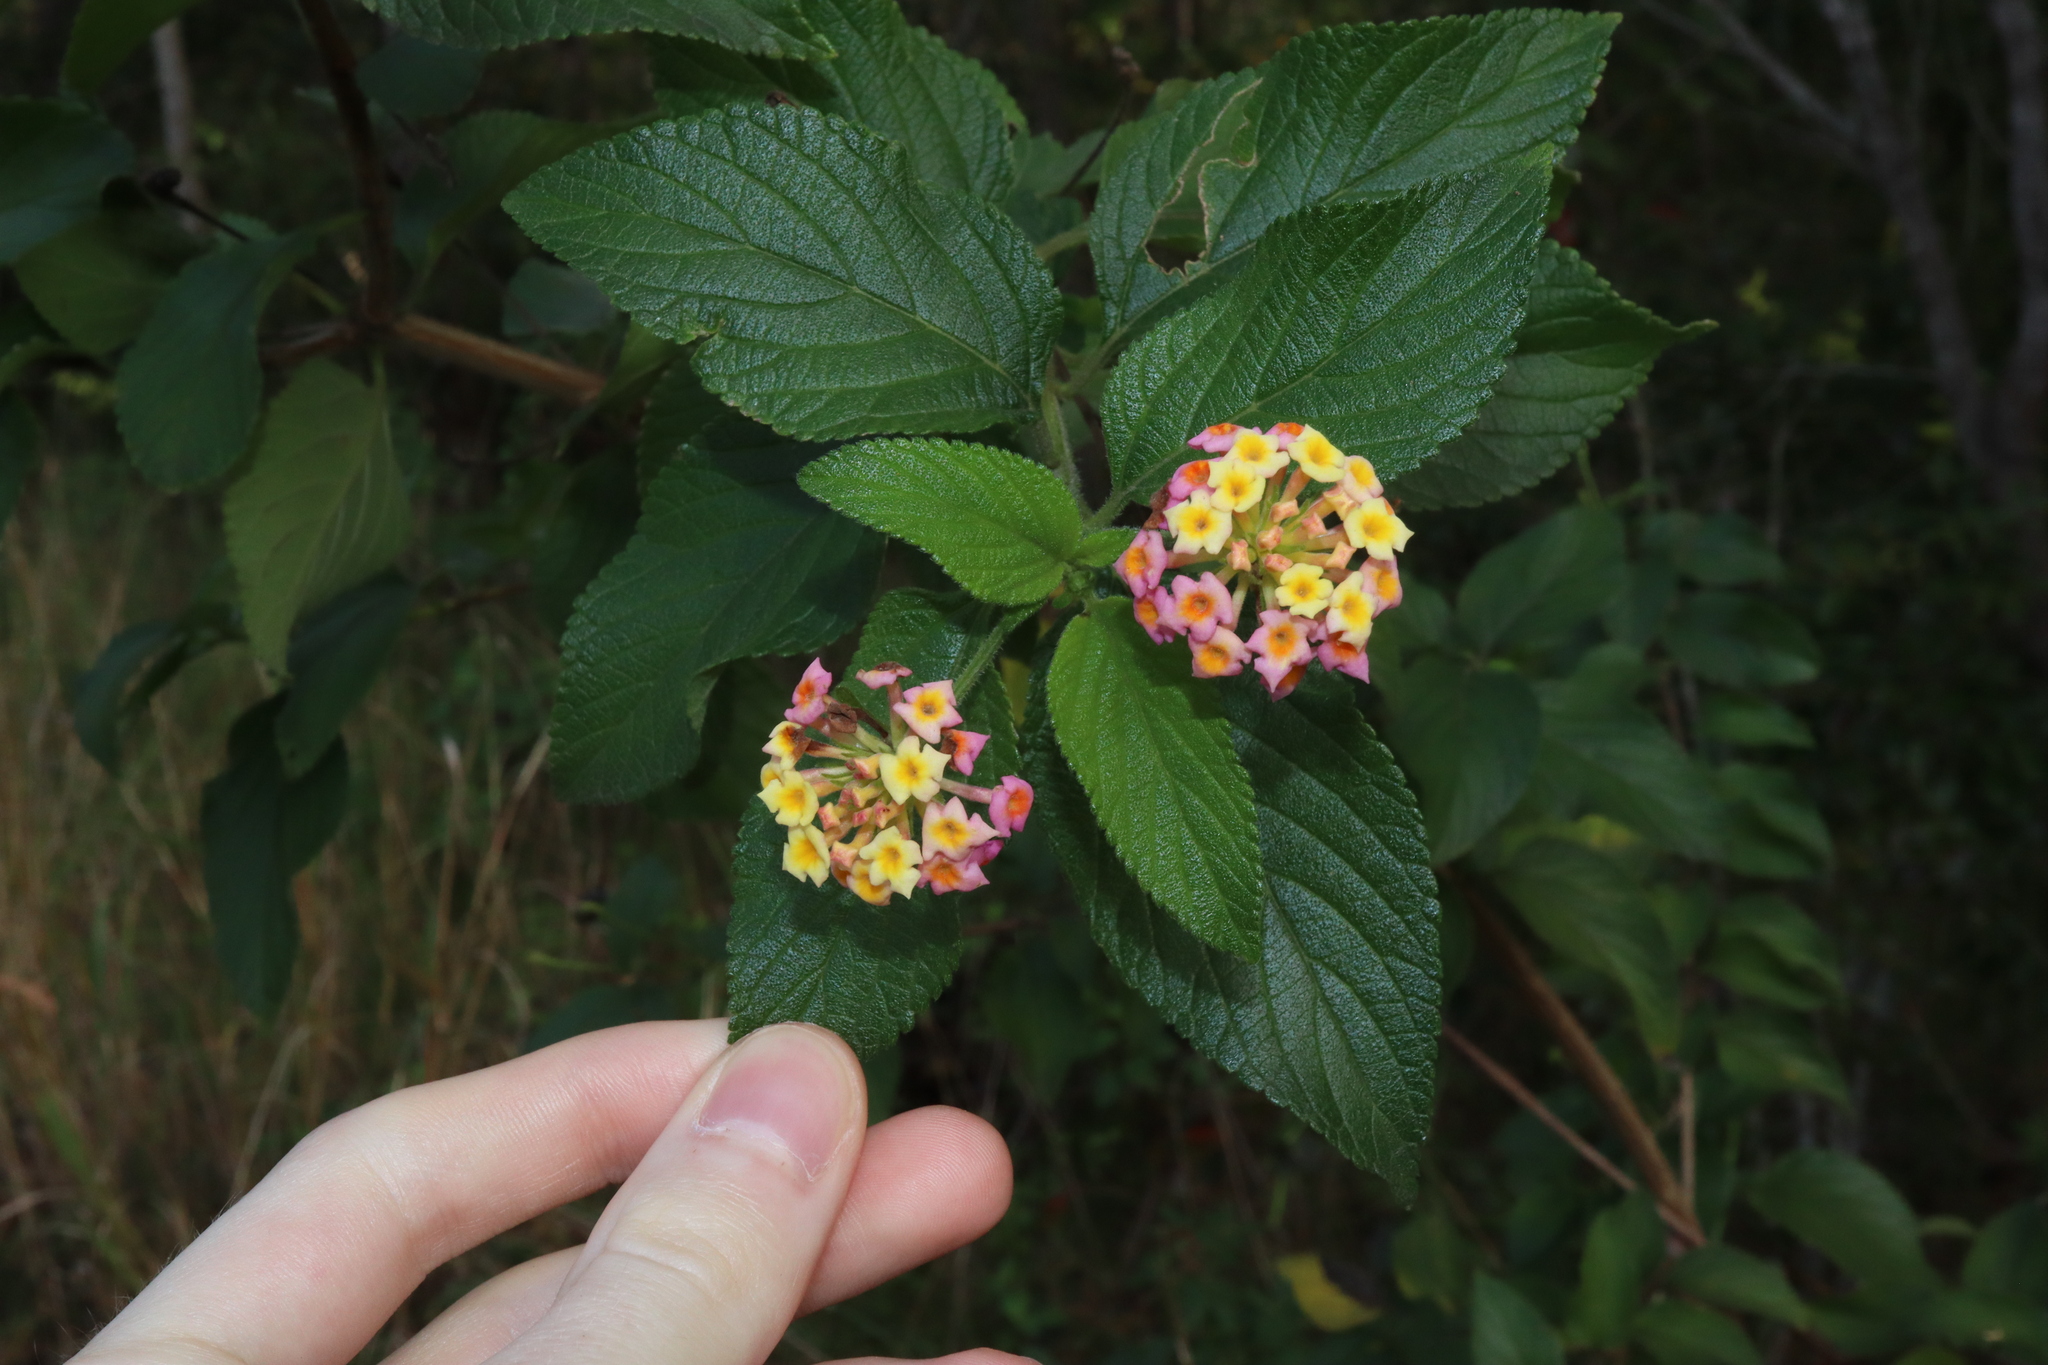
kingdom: Plantae
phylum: Tracheophyta
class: Magnoliopsida
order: Lamiales
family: Verbenaceae
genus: Lantana
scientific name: Lantana camara
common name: Lantana
